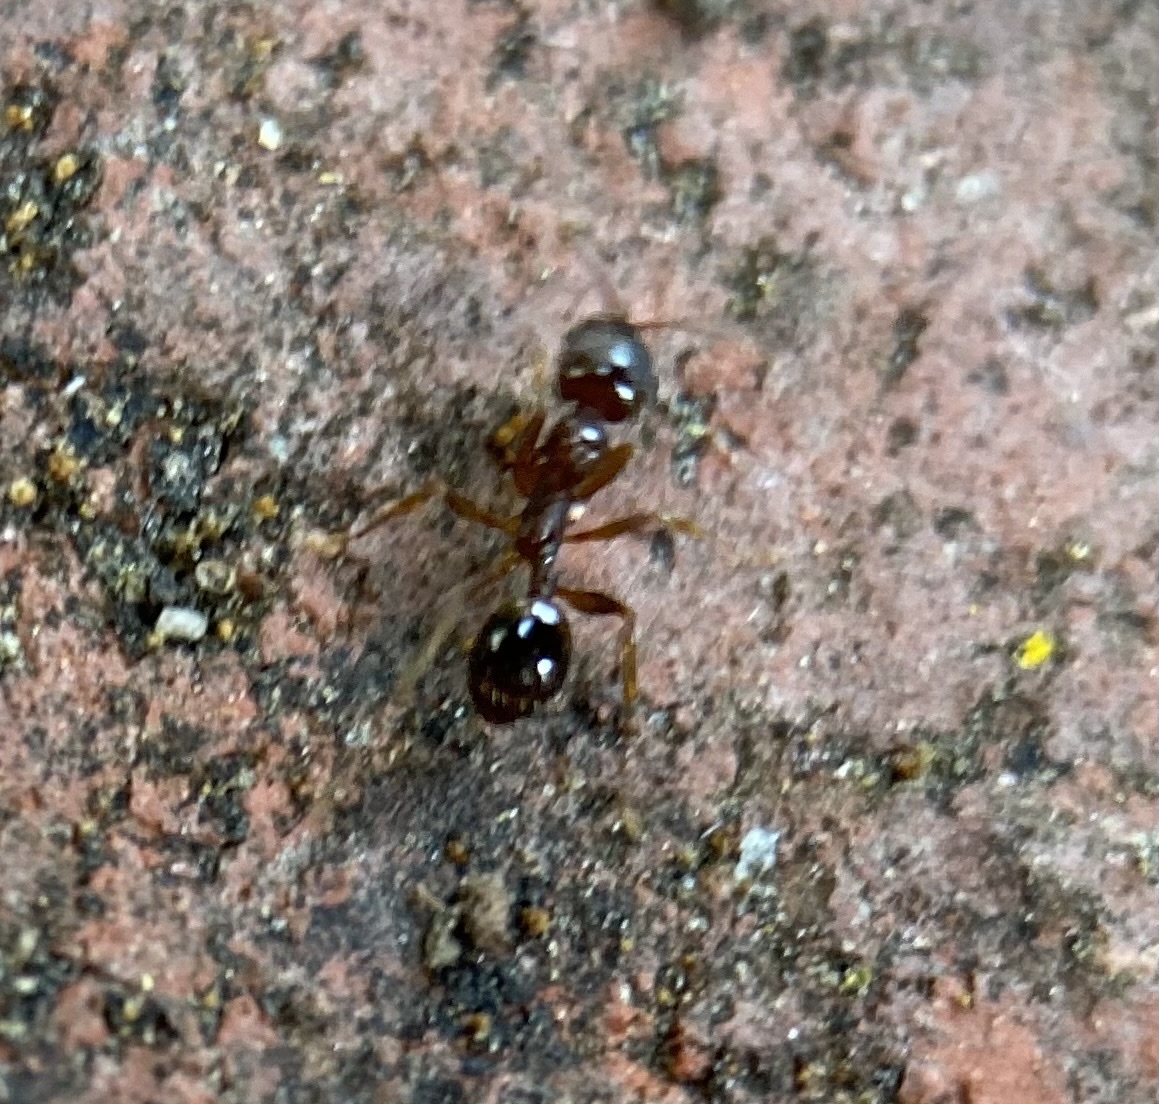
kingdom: Animalia
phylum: Arthropoda
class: Insecta
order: Hymenoptera
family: Formicidae
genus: Aphaenogaster
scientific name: Aphaenogaster occidentalis
